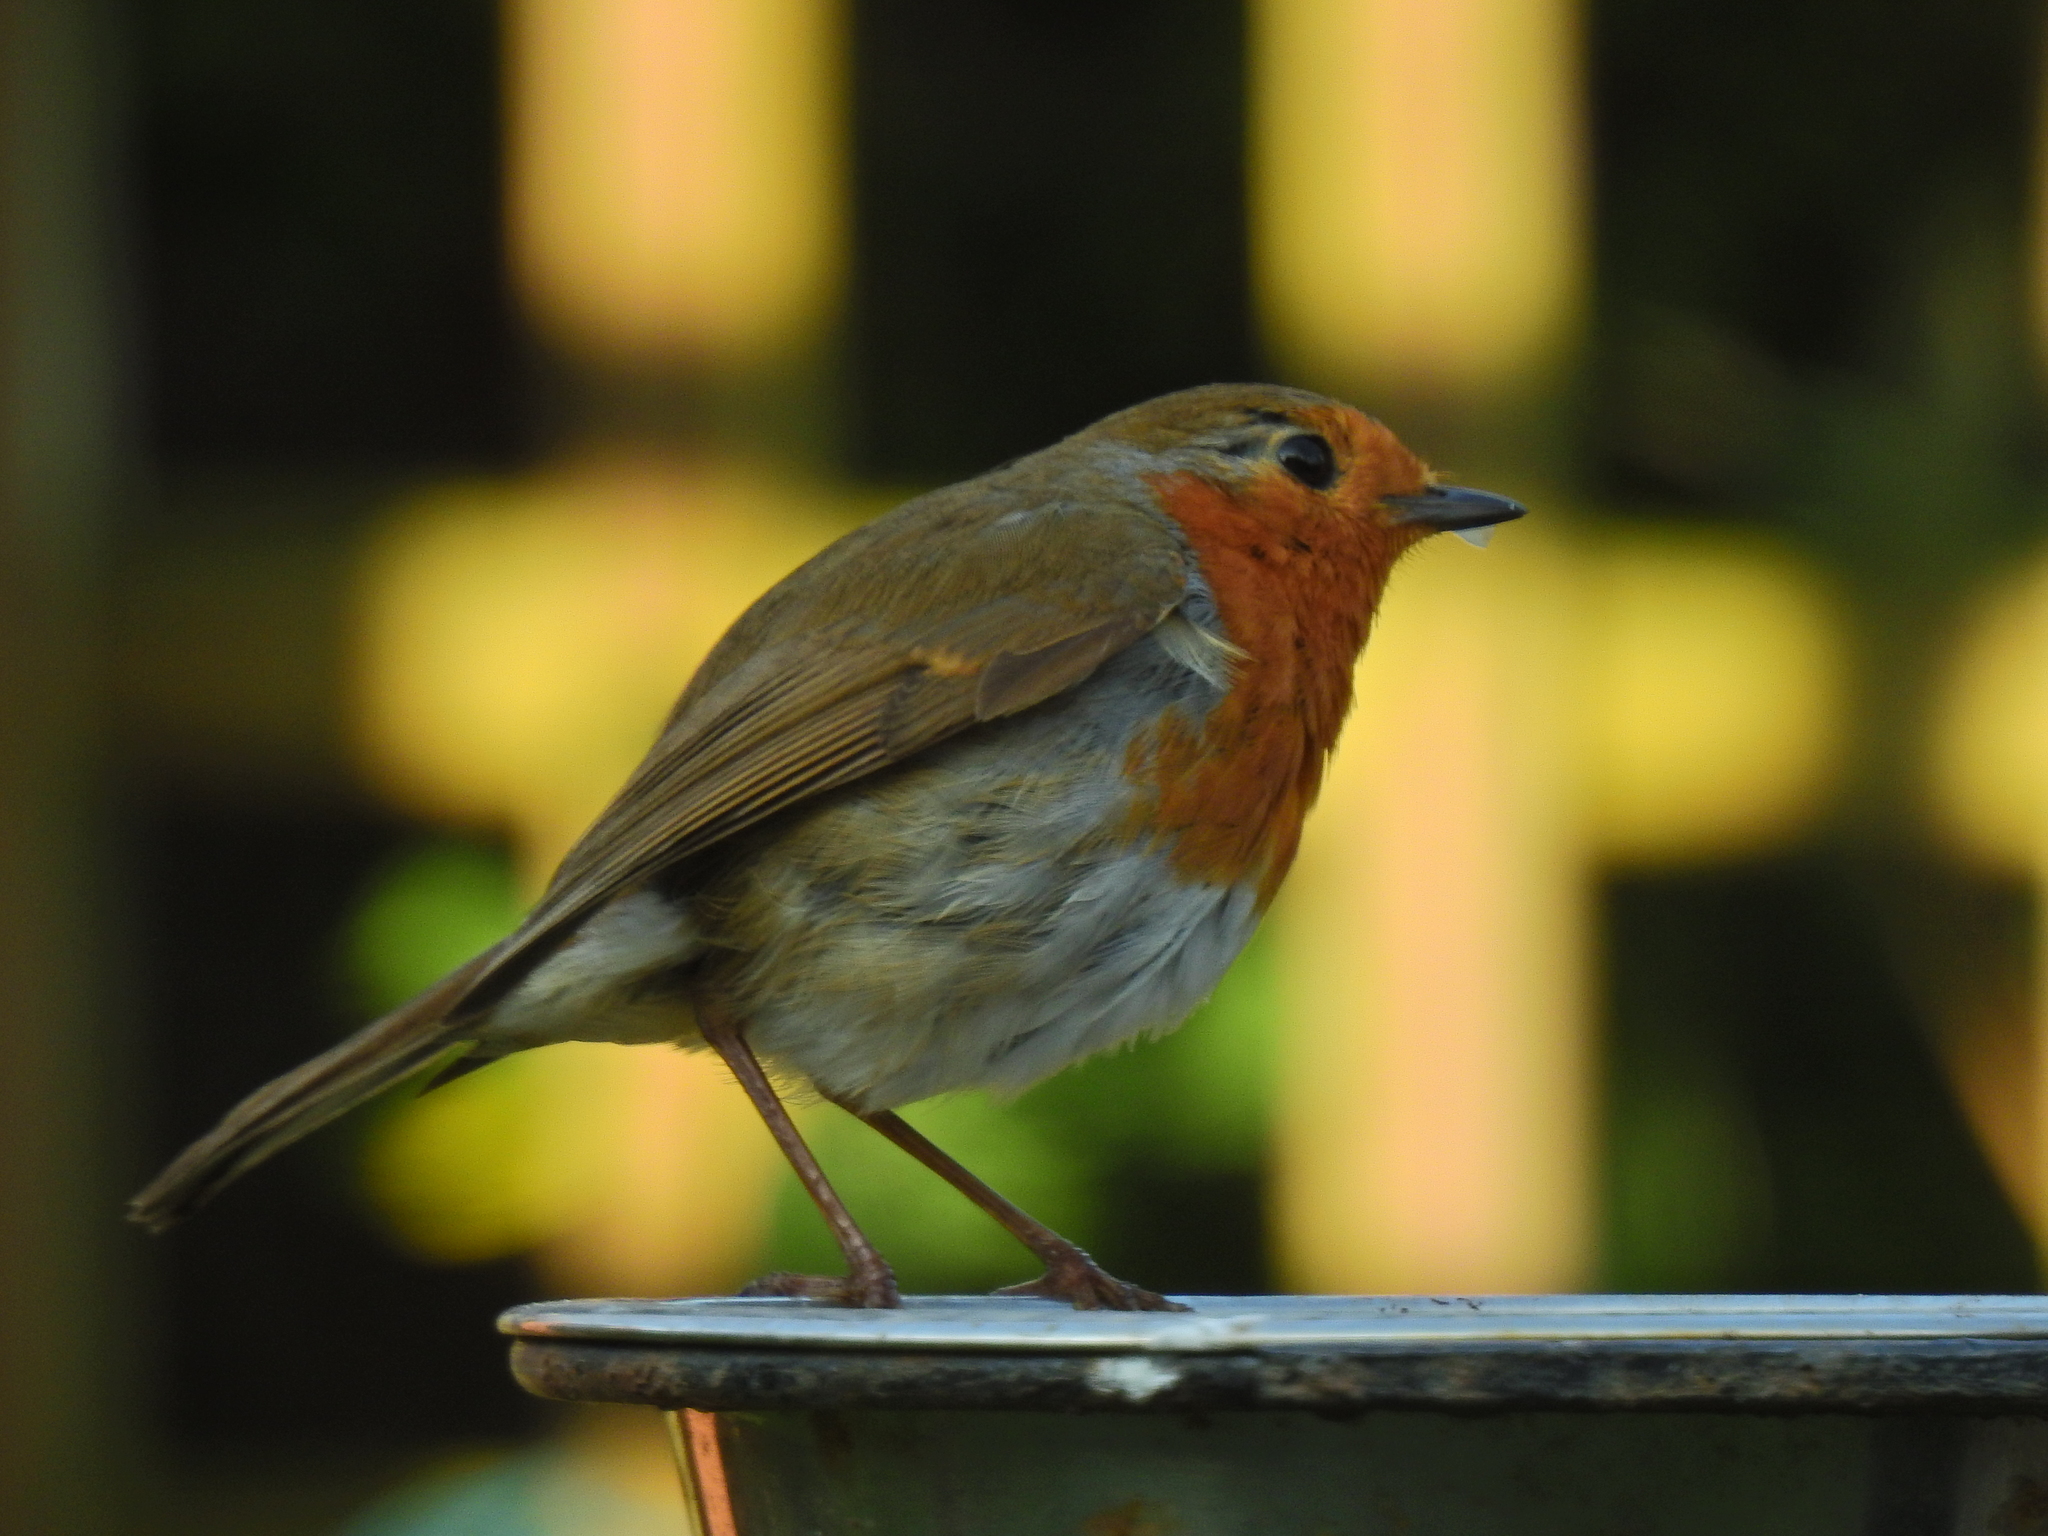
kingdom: Animalia
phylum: Chordata
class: Aves
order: Passeriformes
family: Muscicapidae
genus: Erithacus
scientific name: Erithacus rubecula
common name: European robin
